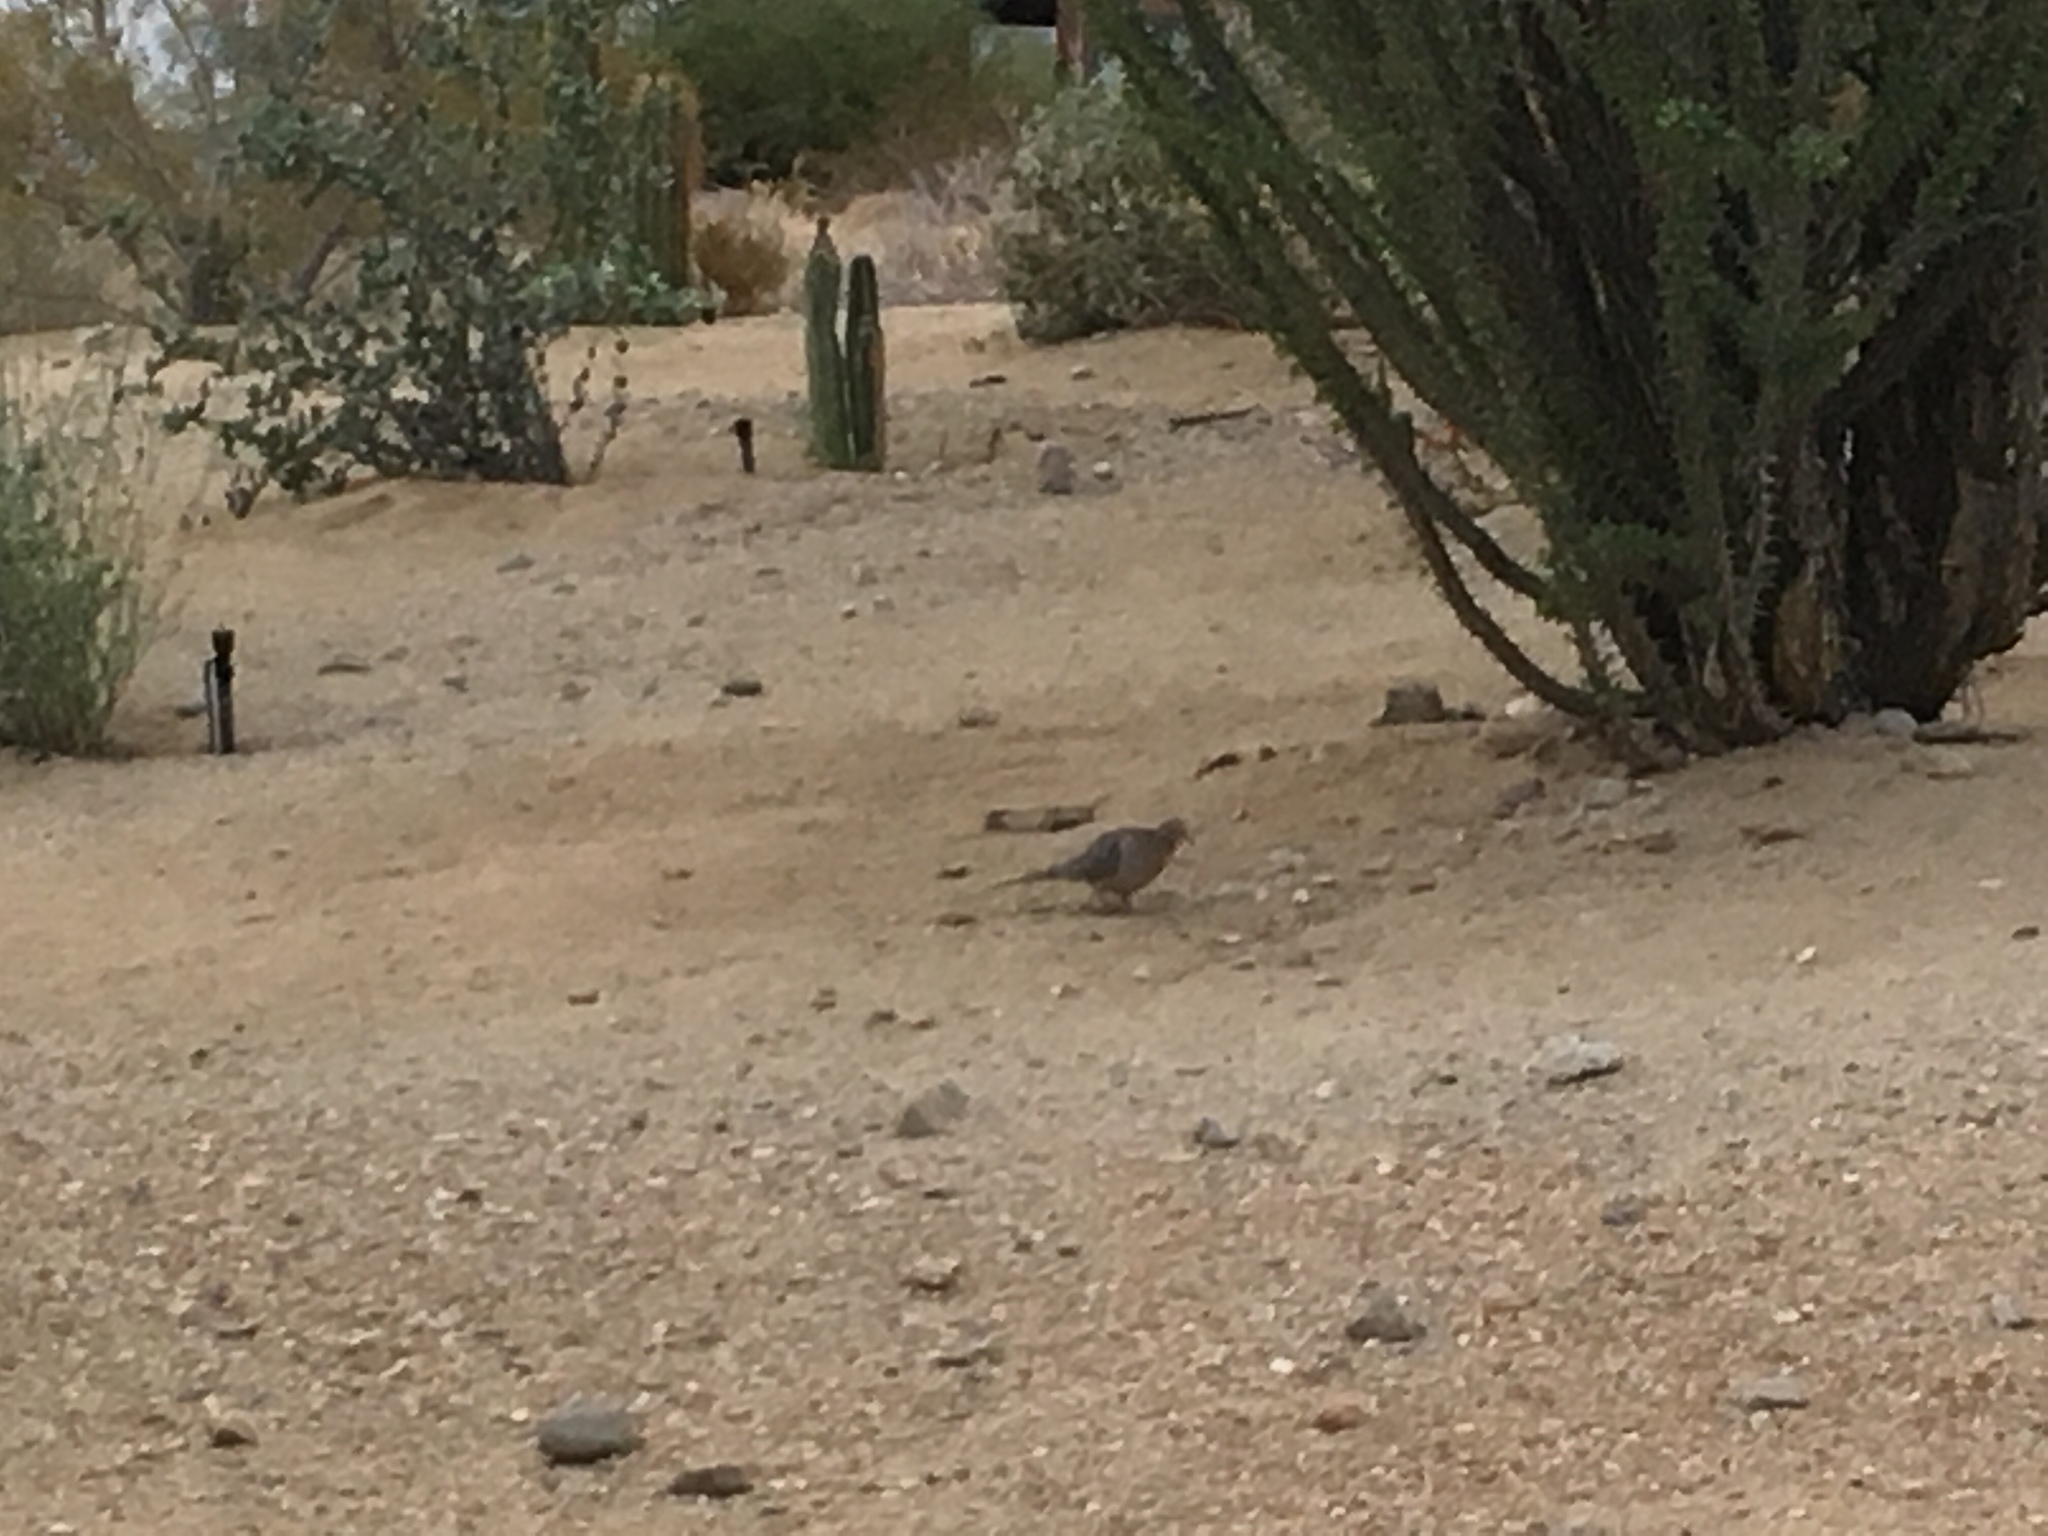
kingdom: Animalia
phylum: Chordata
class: Aves
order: Columbiformes
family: Columbidae
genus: Zenaida
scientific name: Zenaida macroura
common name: Mourning dove
